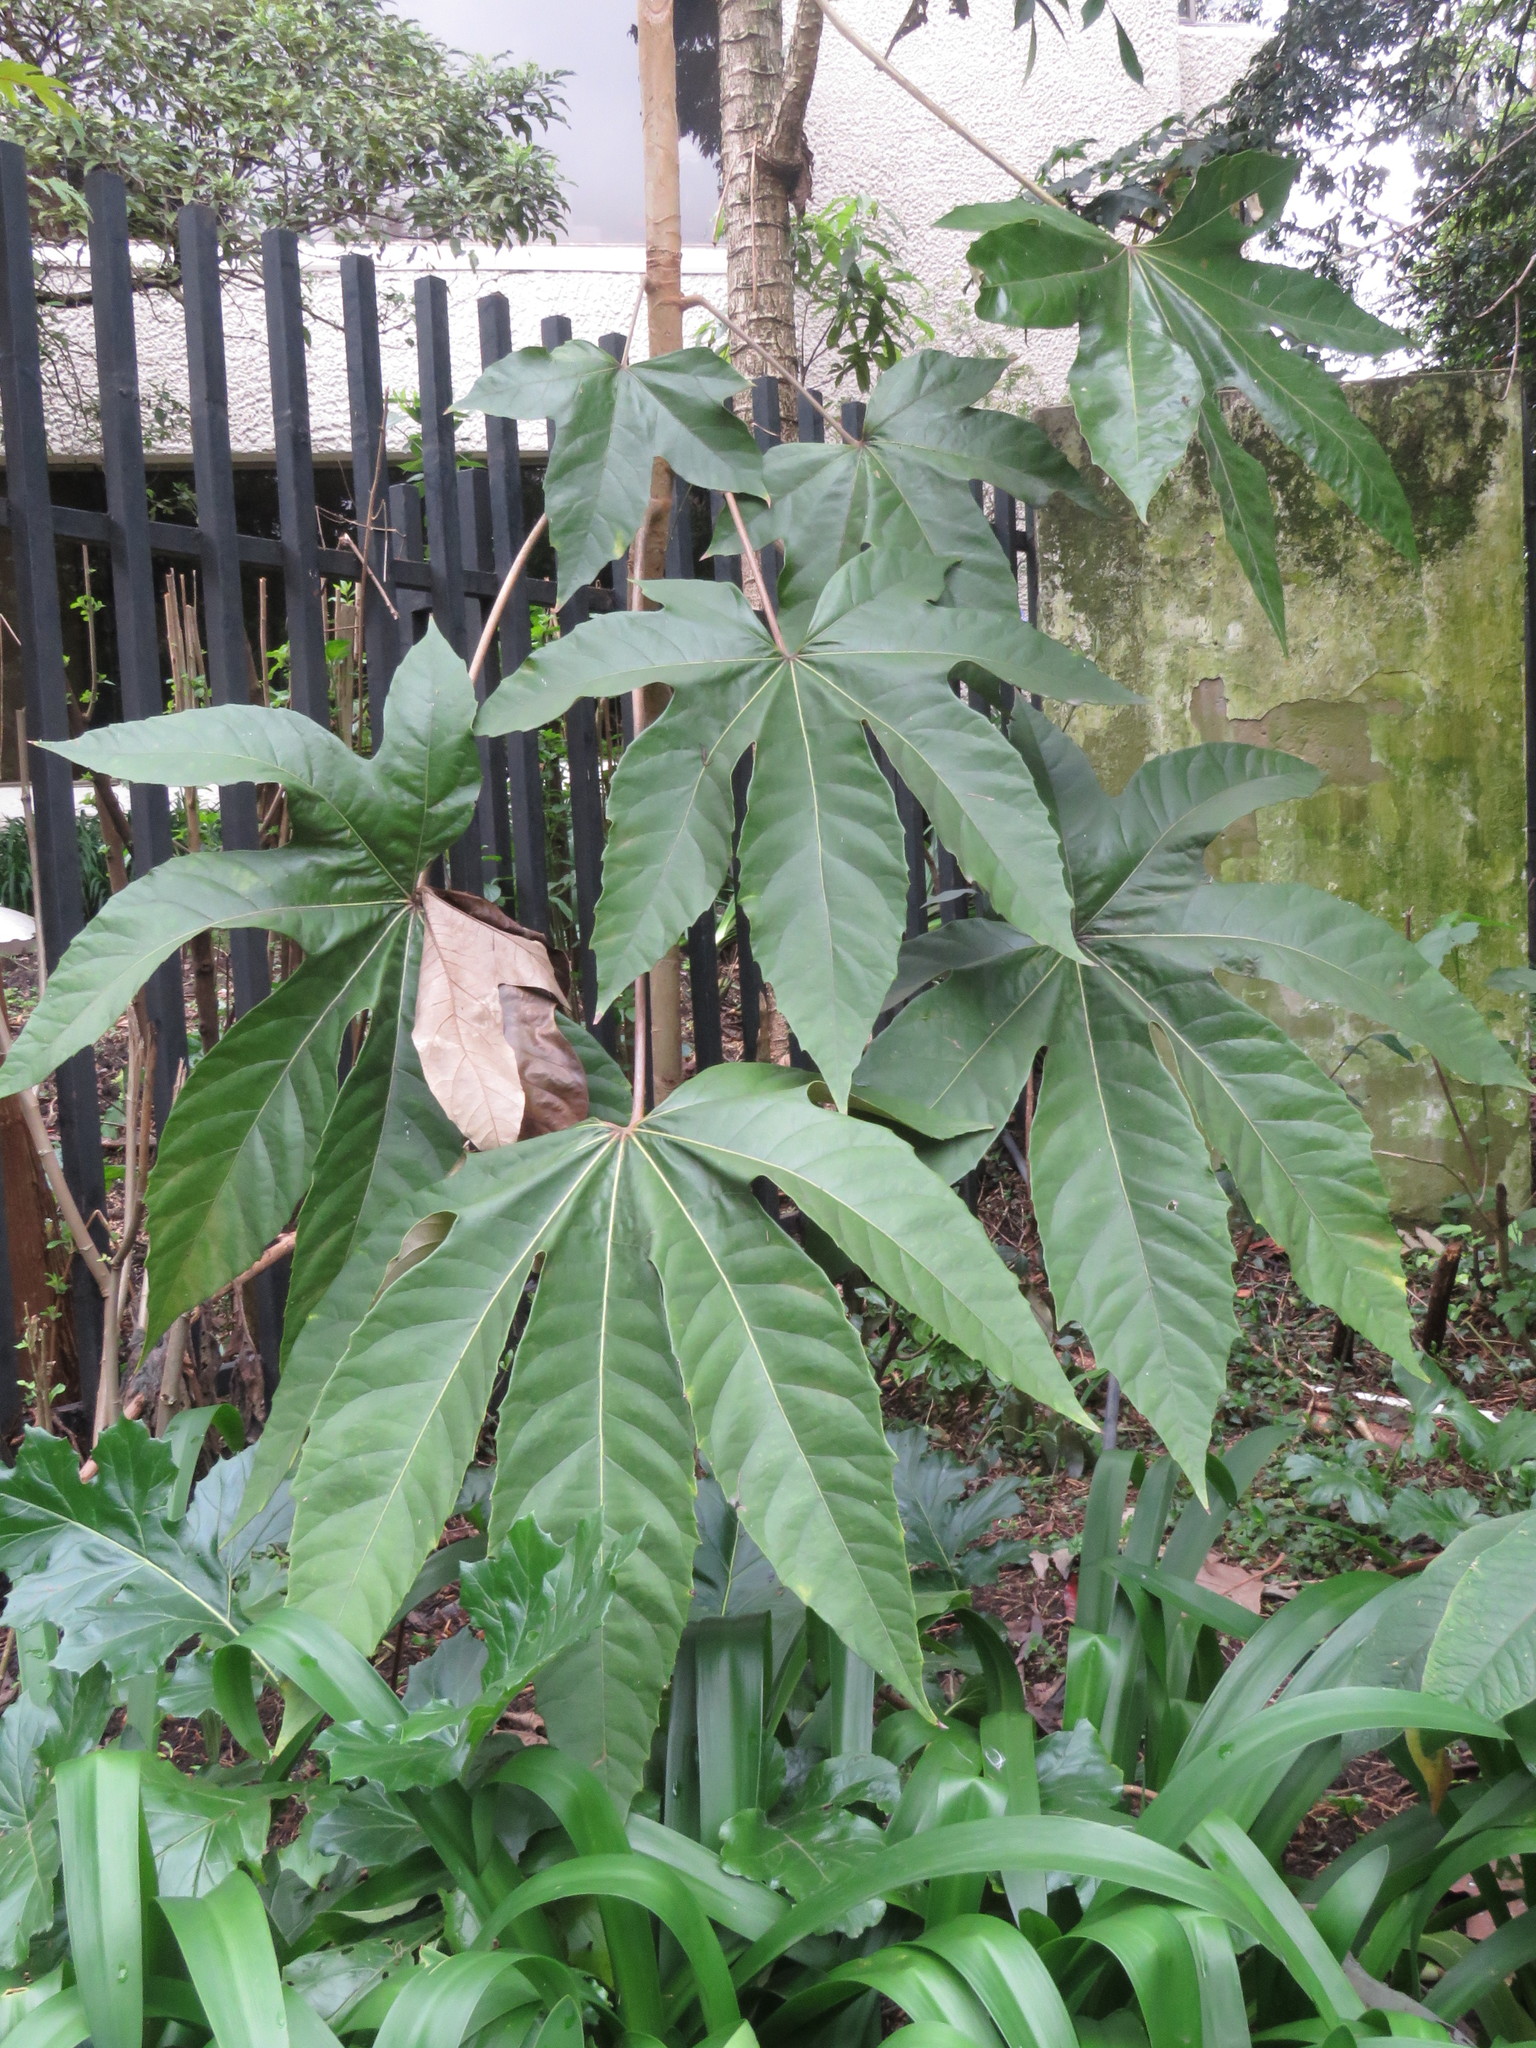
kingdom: Plantae
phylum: Tracheophyta
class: Magnoliopsida
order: Apiales
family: Araliaceae
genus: Oreopanax
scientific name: Oreopanax incisus
